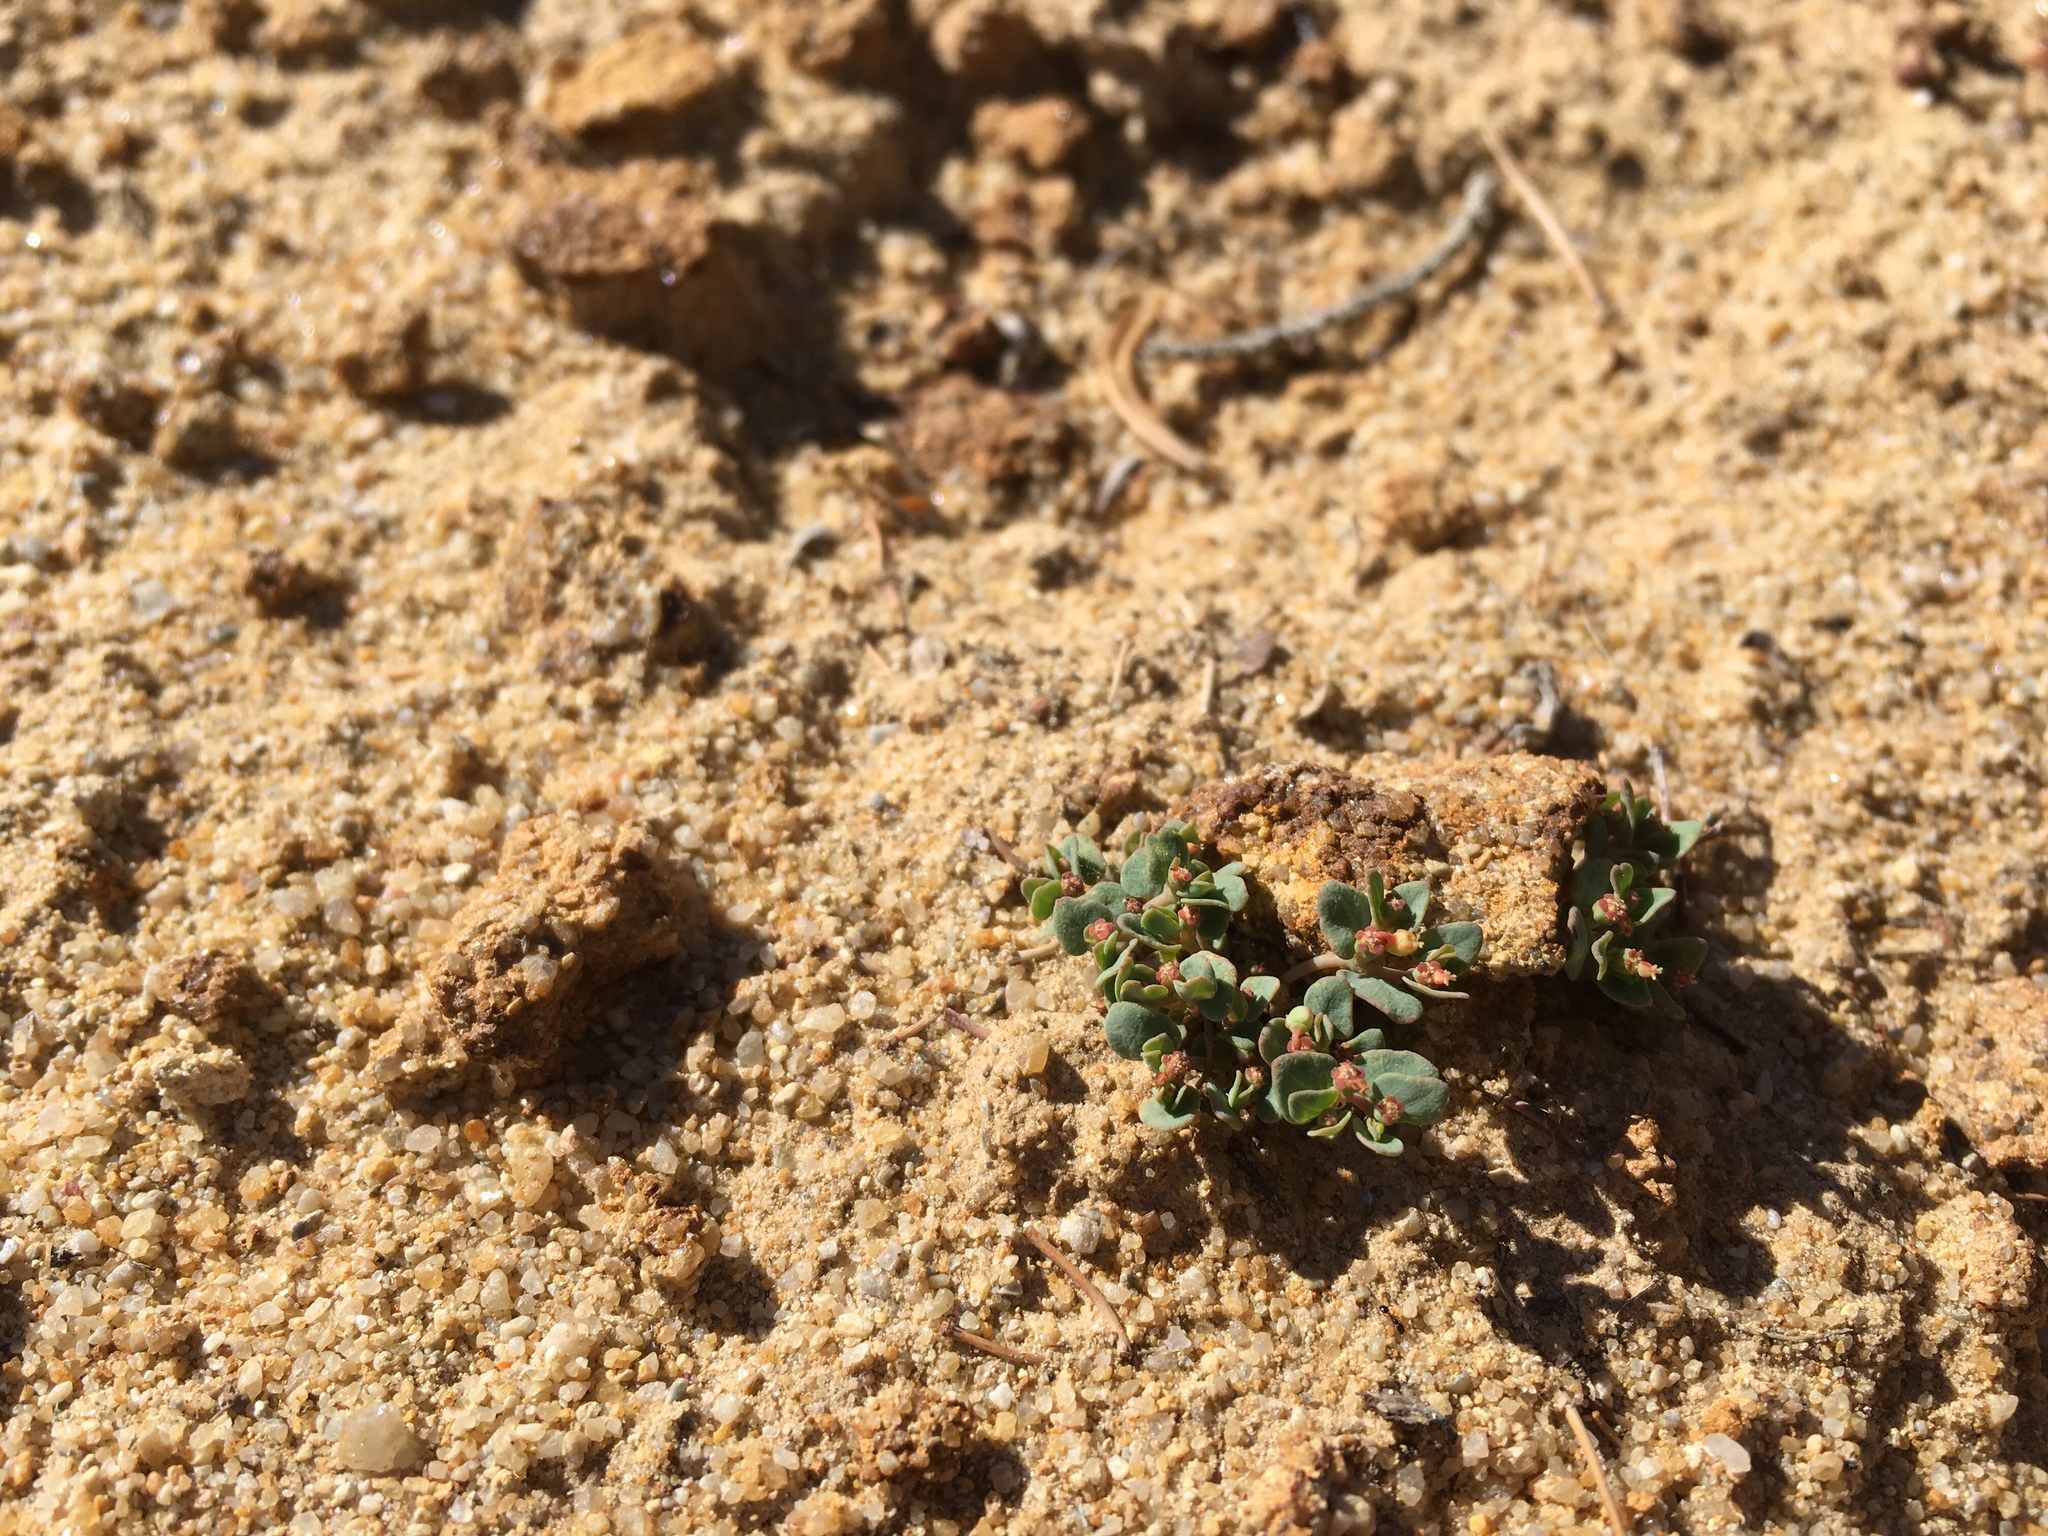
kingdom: Plantae
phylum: Tracheophyta
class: Magnoliopsida
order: Malpighiales
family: Euphorbiaceae
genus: Euphorbia
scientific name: Euphorbia fendleri
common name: Fendler's euphorbia
